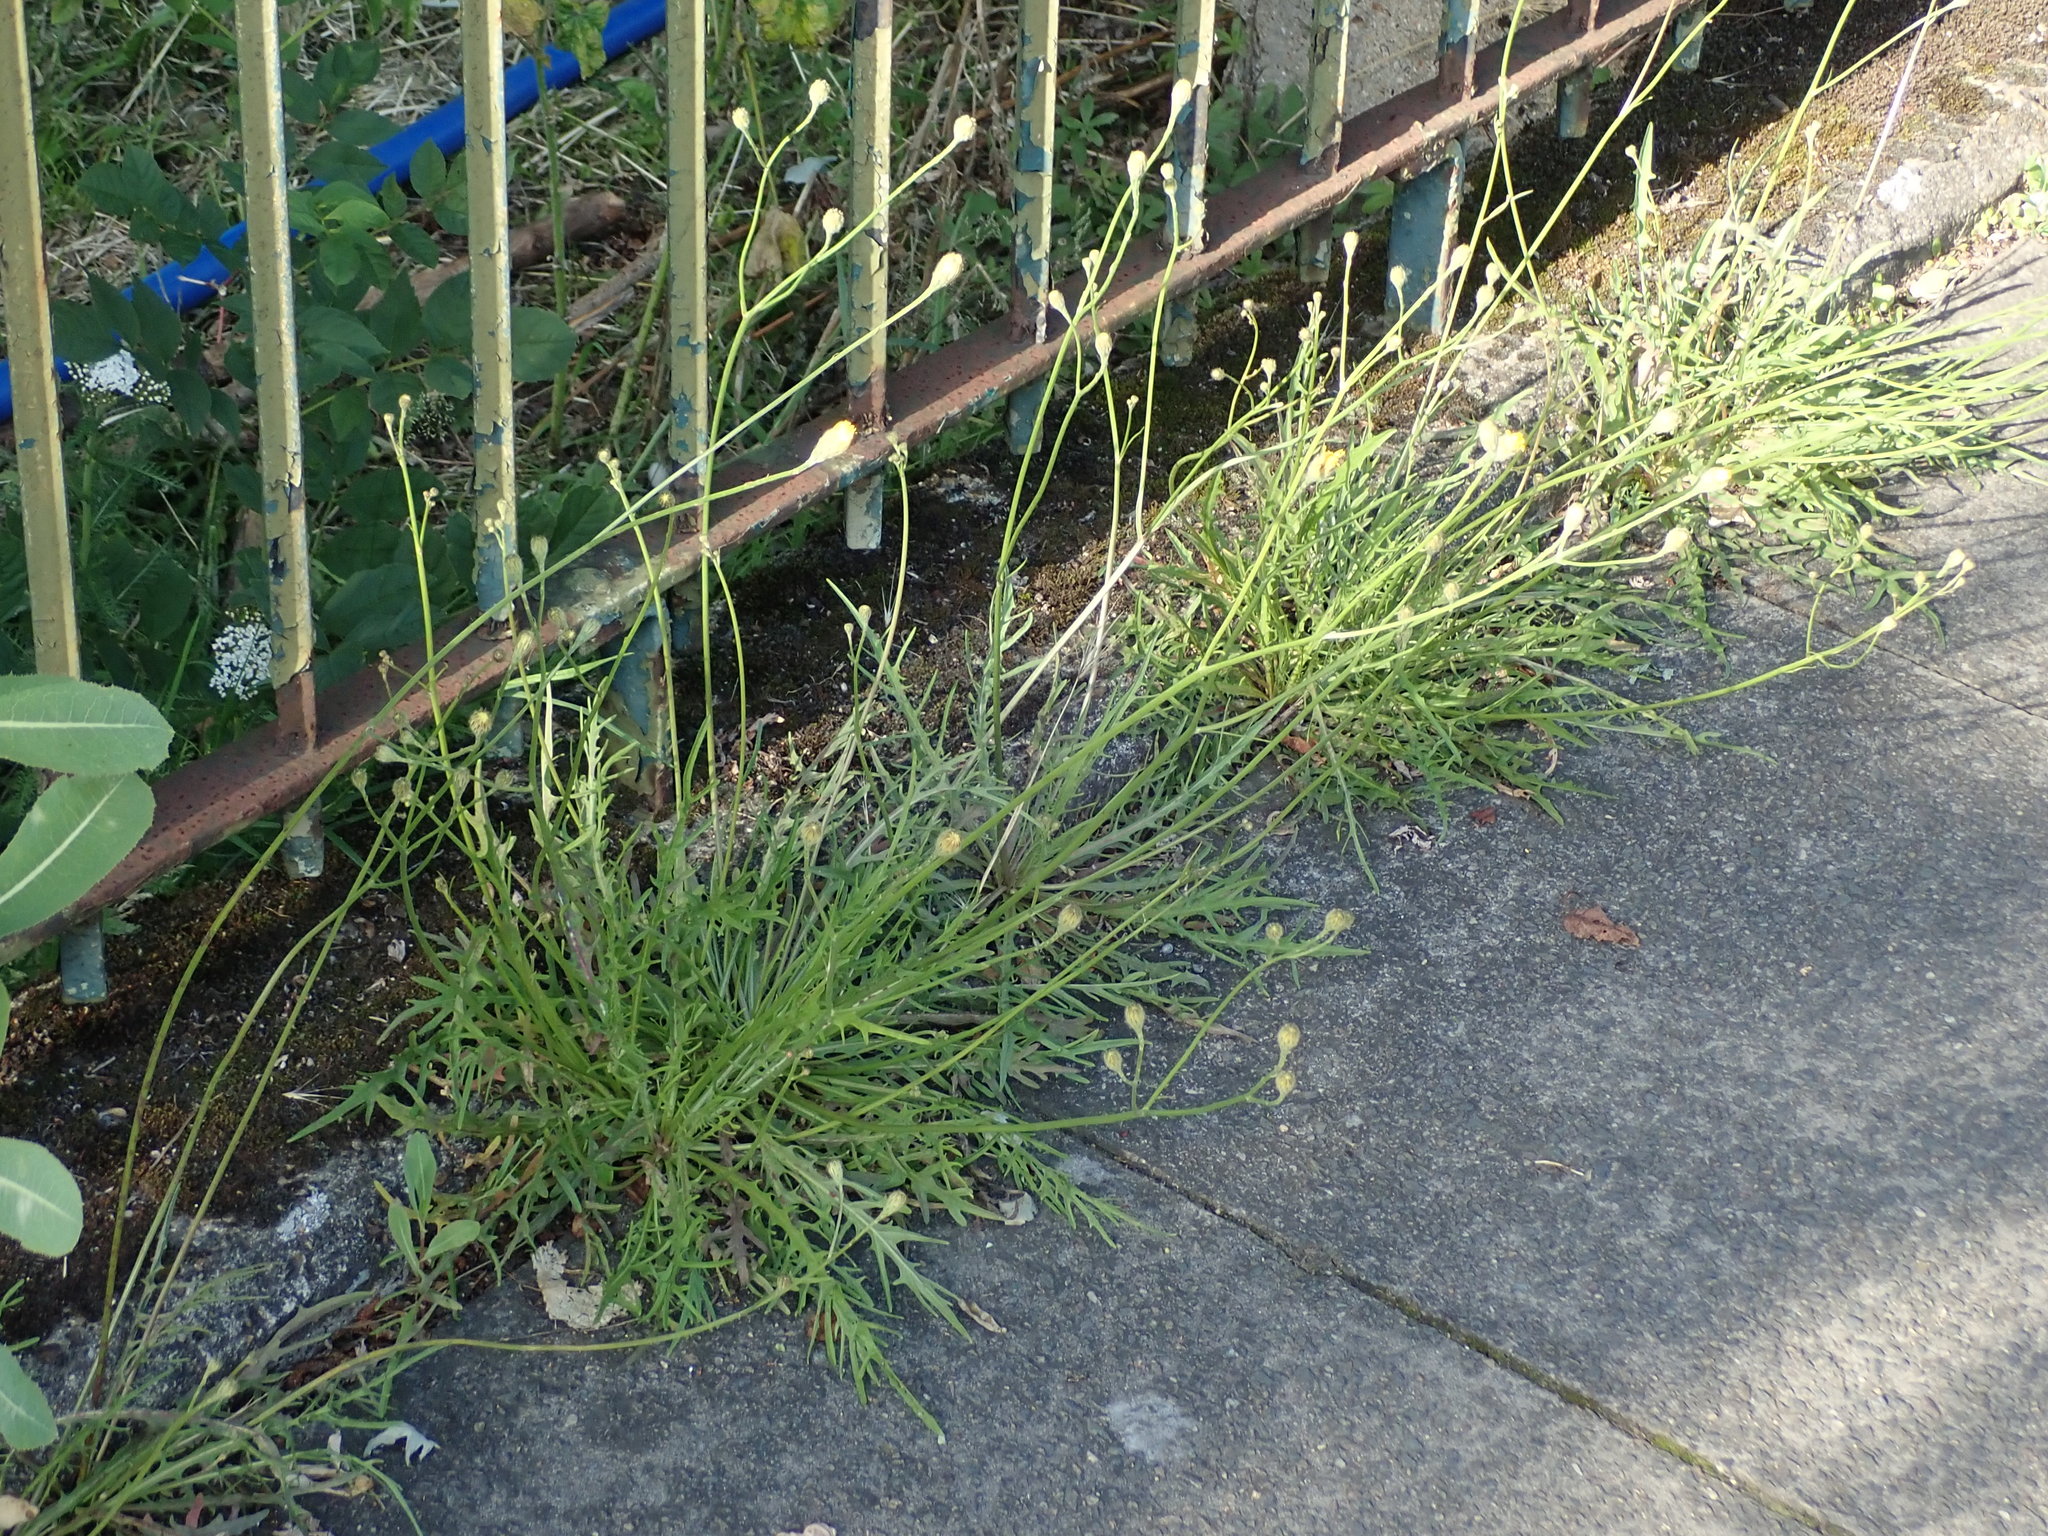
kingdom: Plantae
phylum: Tracheophyta
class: Magnoliopsida
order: Asterales
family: Asteraceae
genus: Scorzoneroides
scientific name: Scorzoneroides autumnalis
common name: Autumn hawkbit
